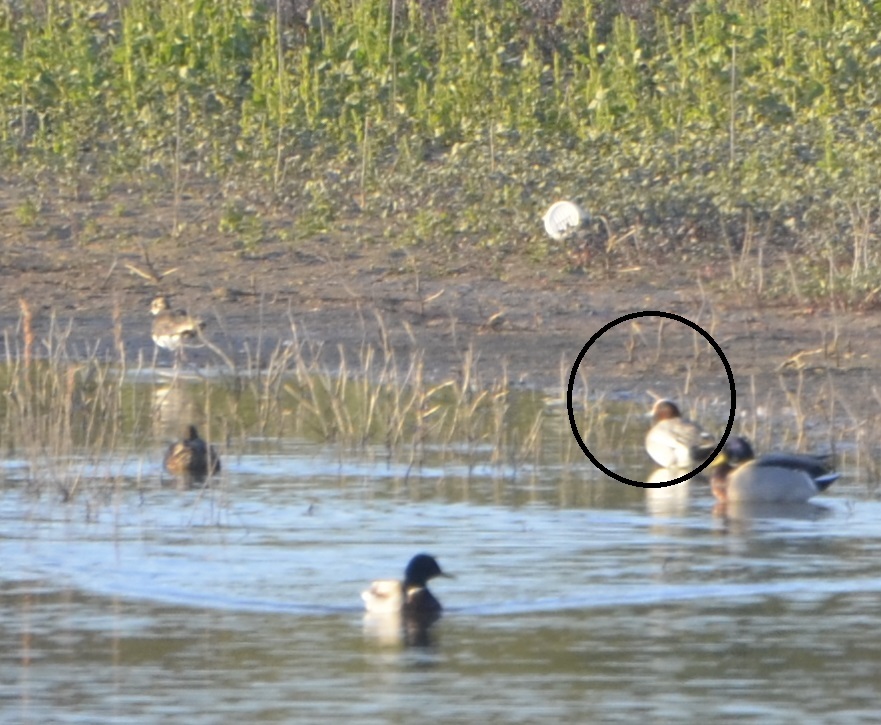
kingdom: Animalia
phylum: Chordata
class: Aves
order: Anseriformes
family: Anatidae
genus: Mareca
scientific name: Mareca penelope
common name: Eurasian wigeon
